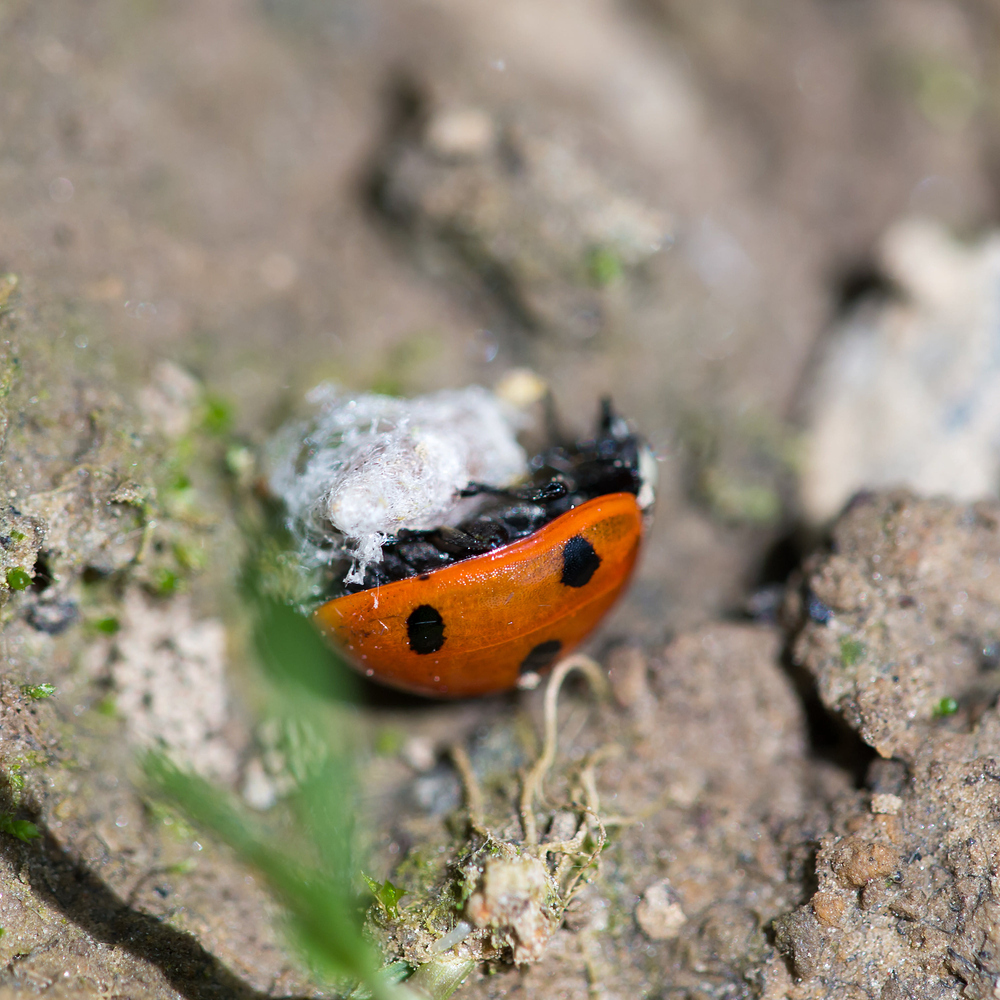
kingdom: Animalia
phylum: Arthropoda
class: Insecta
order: Coleoptera
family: Coccinellidae
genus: Coccinella
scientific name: Coccinella septempunctata
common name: Sevenspotted lady beetle
